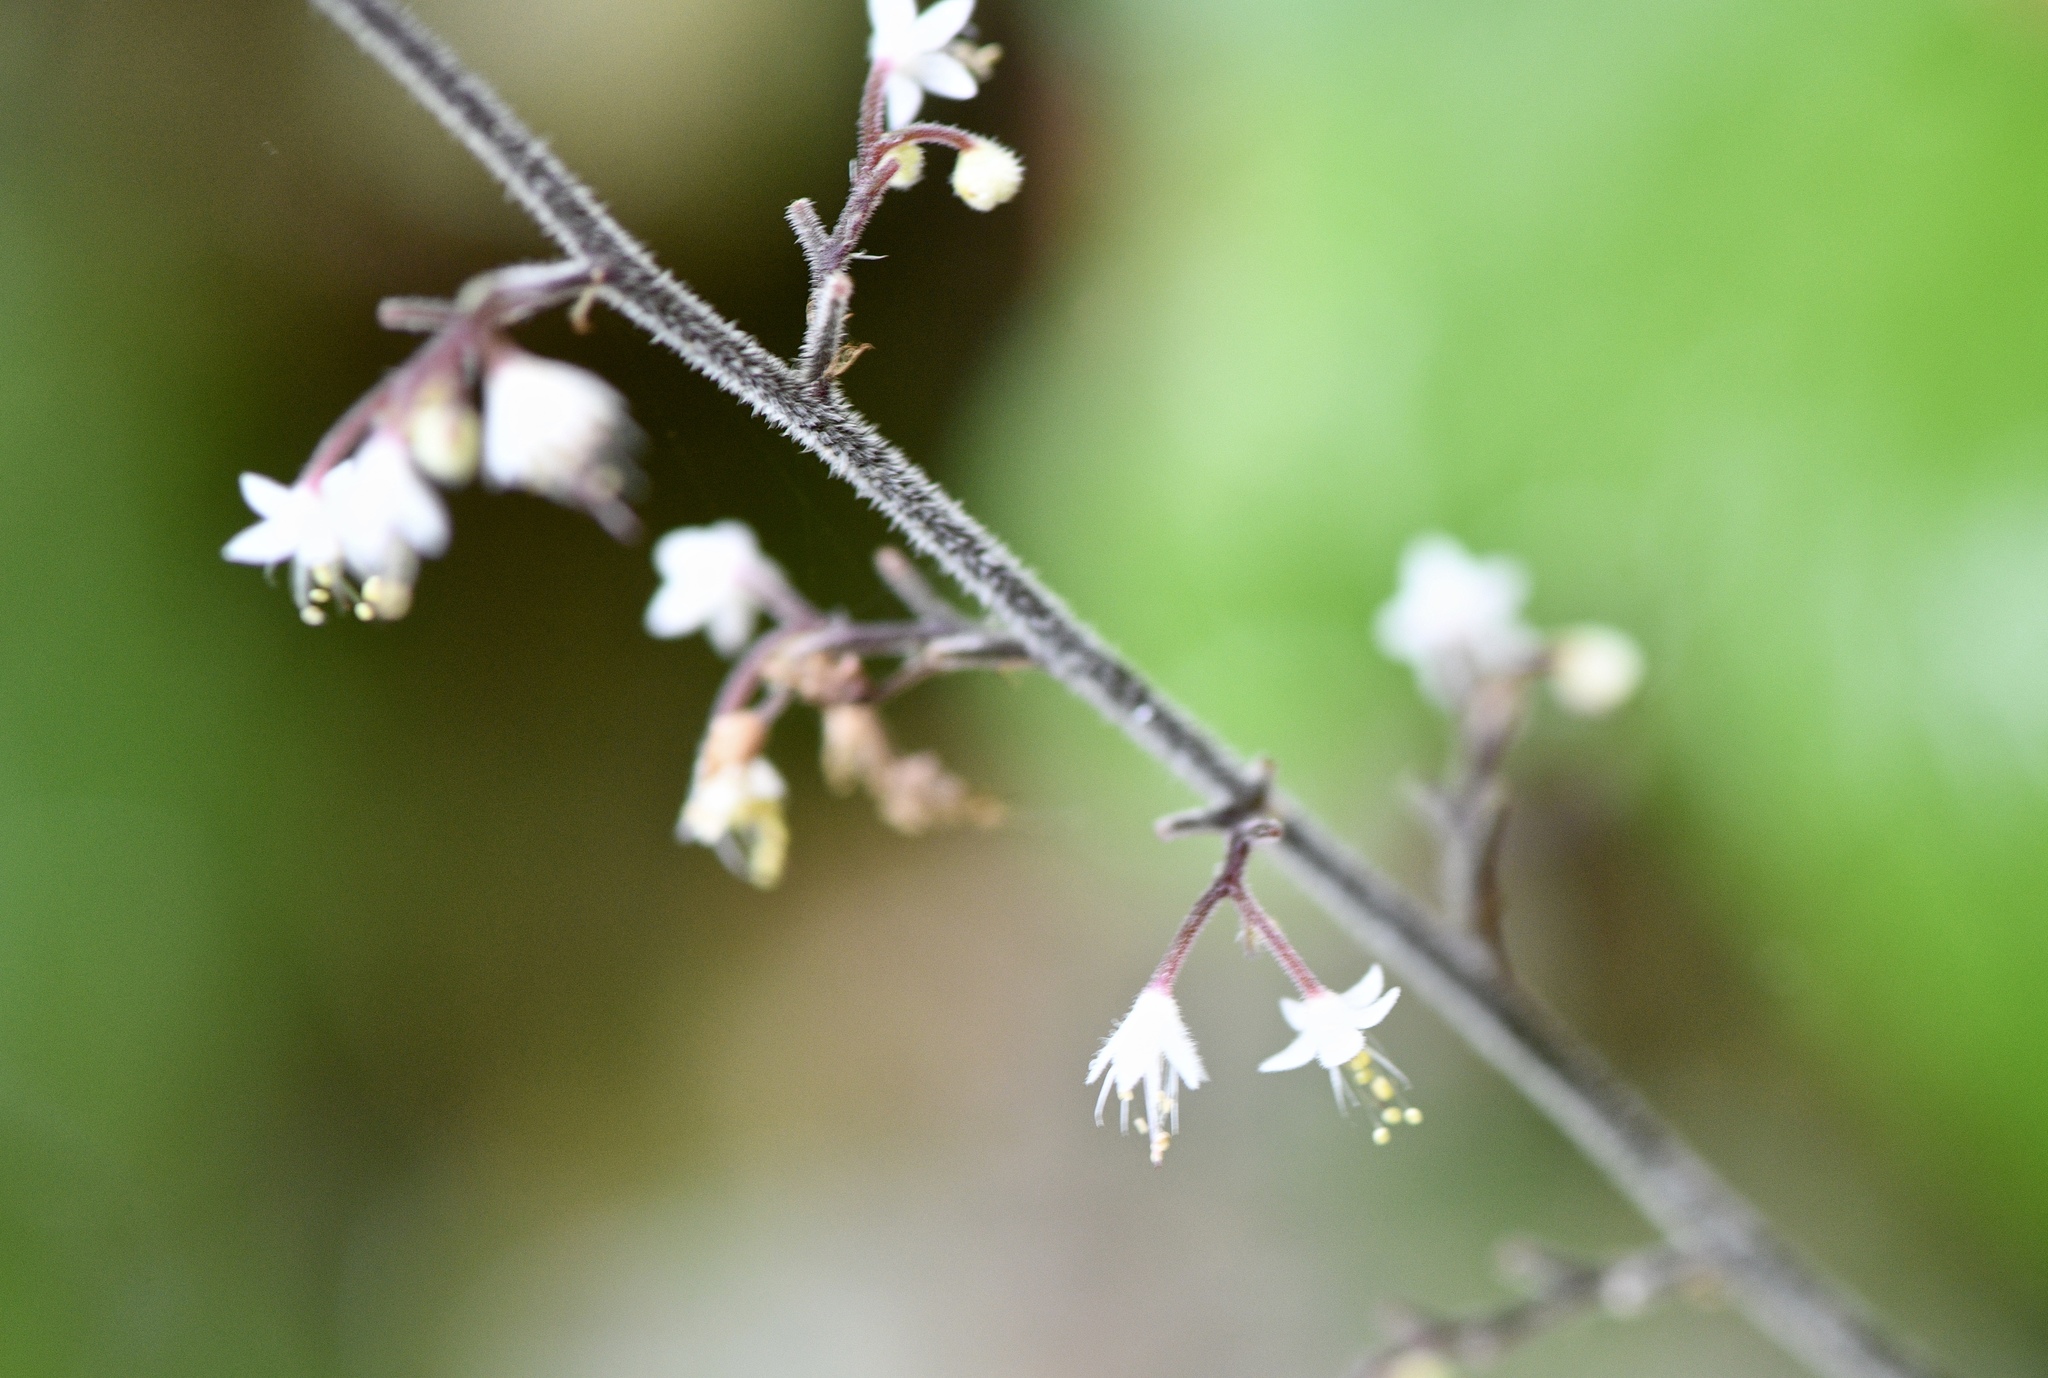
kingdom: Plantae
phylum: Tracheophyta
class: Magnoliopsida
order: Saxifragales
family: Saxifragaceae
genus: Tiarella
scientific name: Tiarella trifoliata
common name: Sugar-scoop
